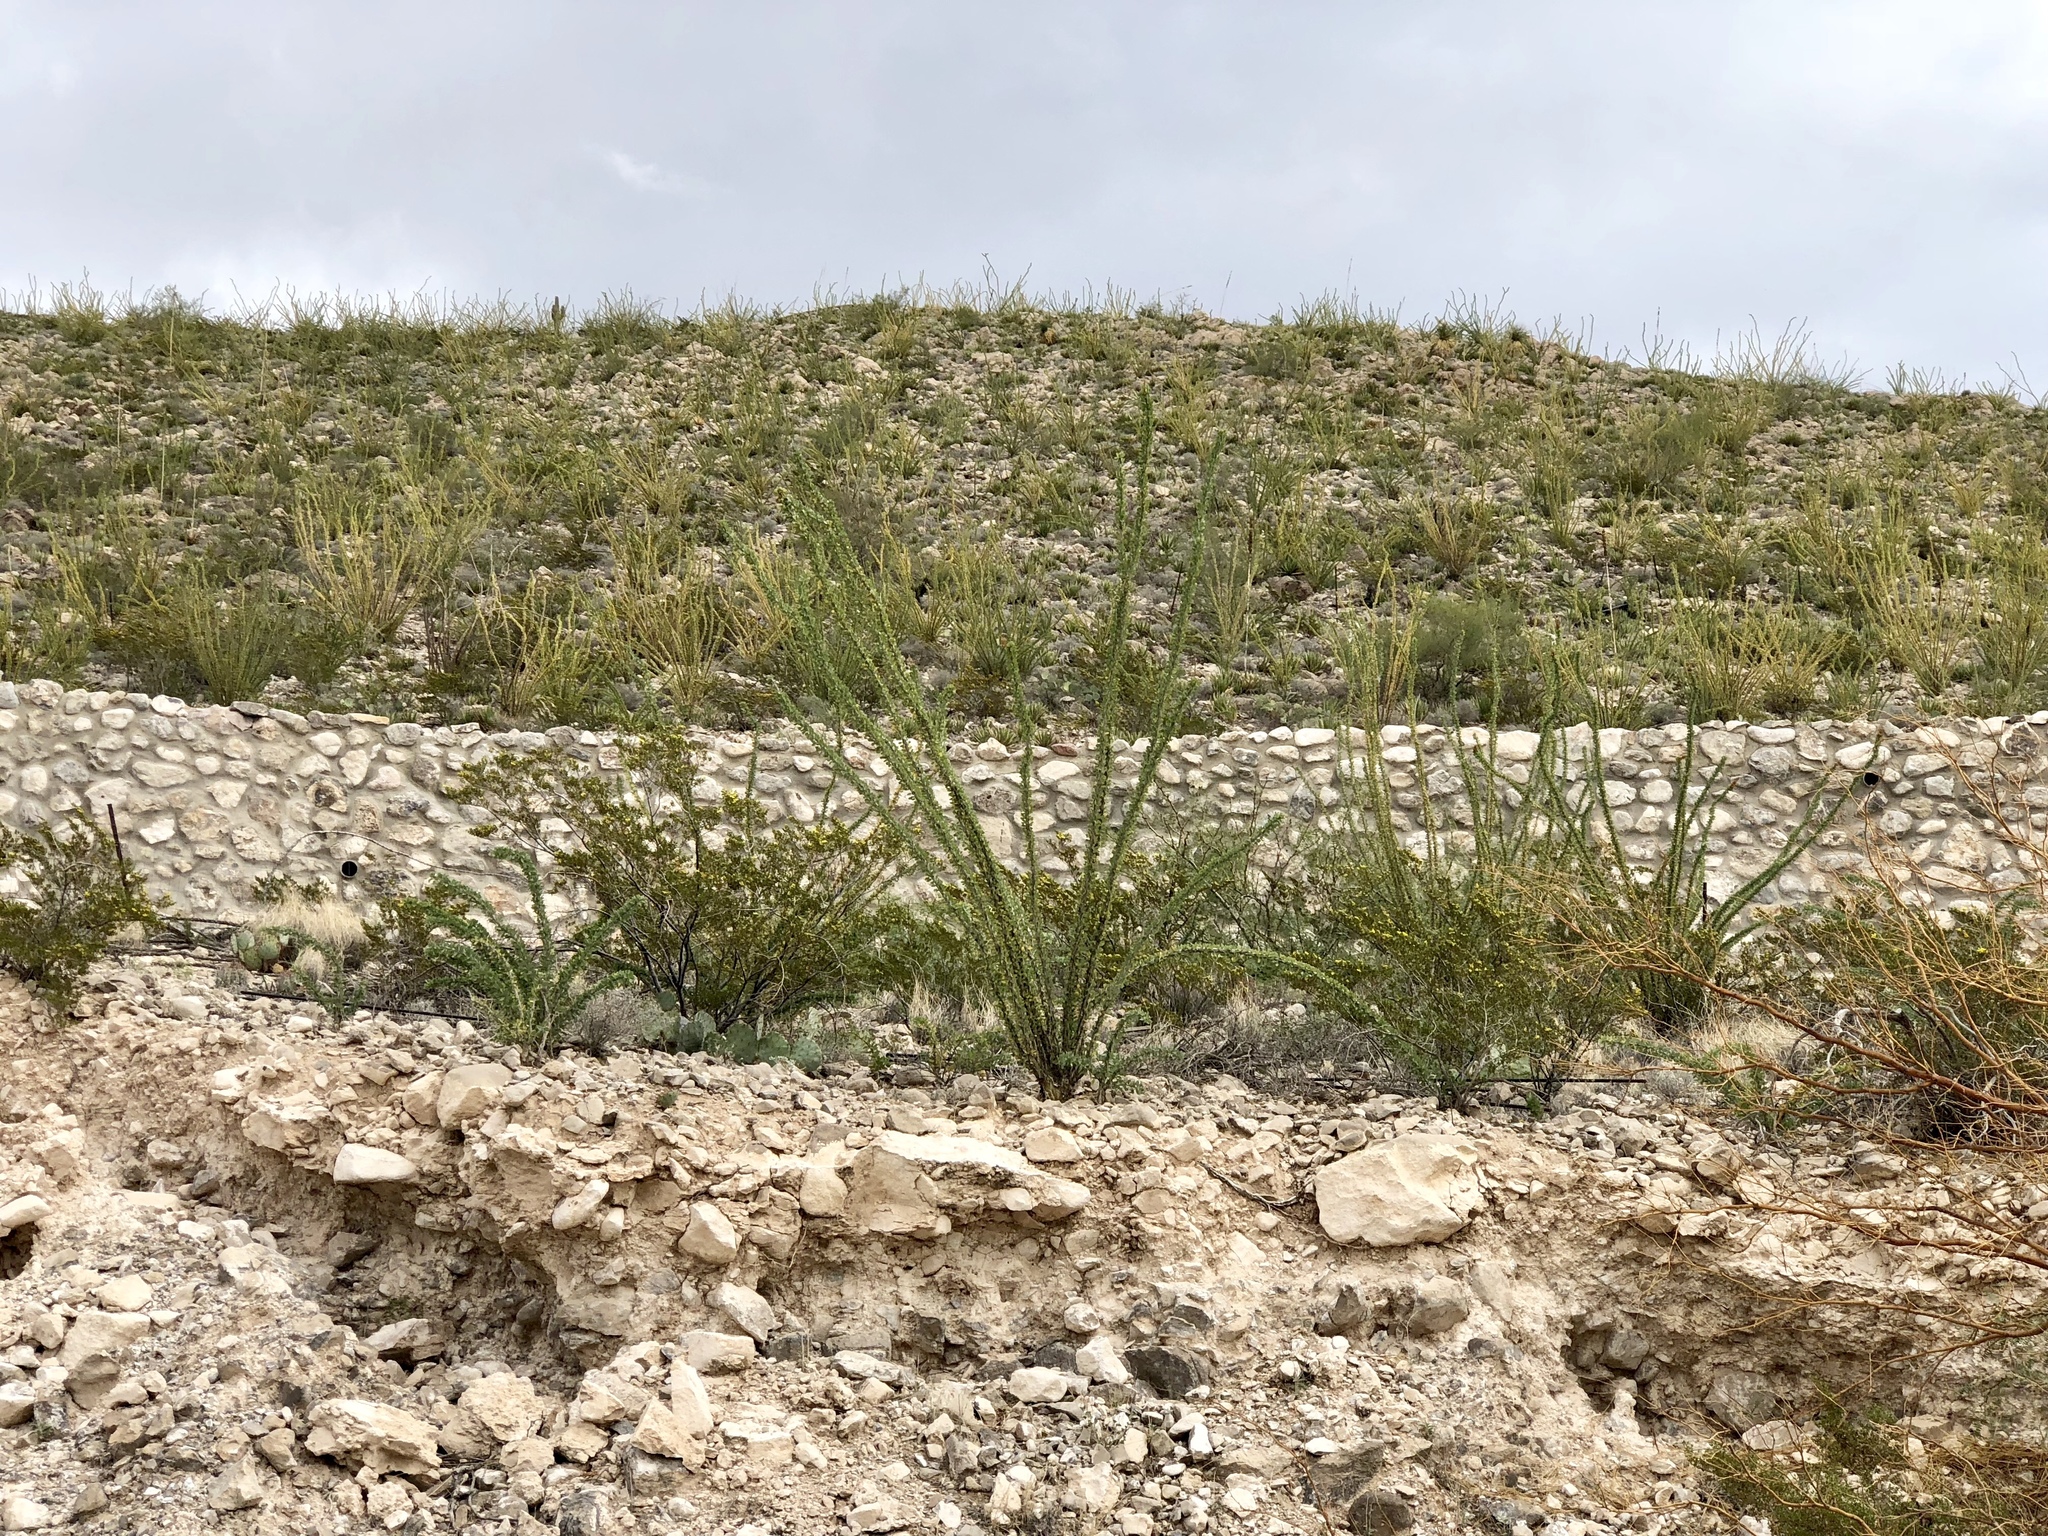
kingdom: Plantae
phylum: Tracheophyta
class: Magnoliopsida
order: Ericales
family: Fouquieriaceae
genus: Fouquieria
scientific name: Fouquieria splendens
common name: Vine-cactus
